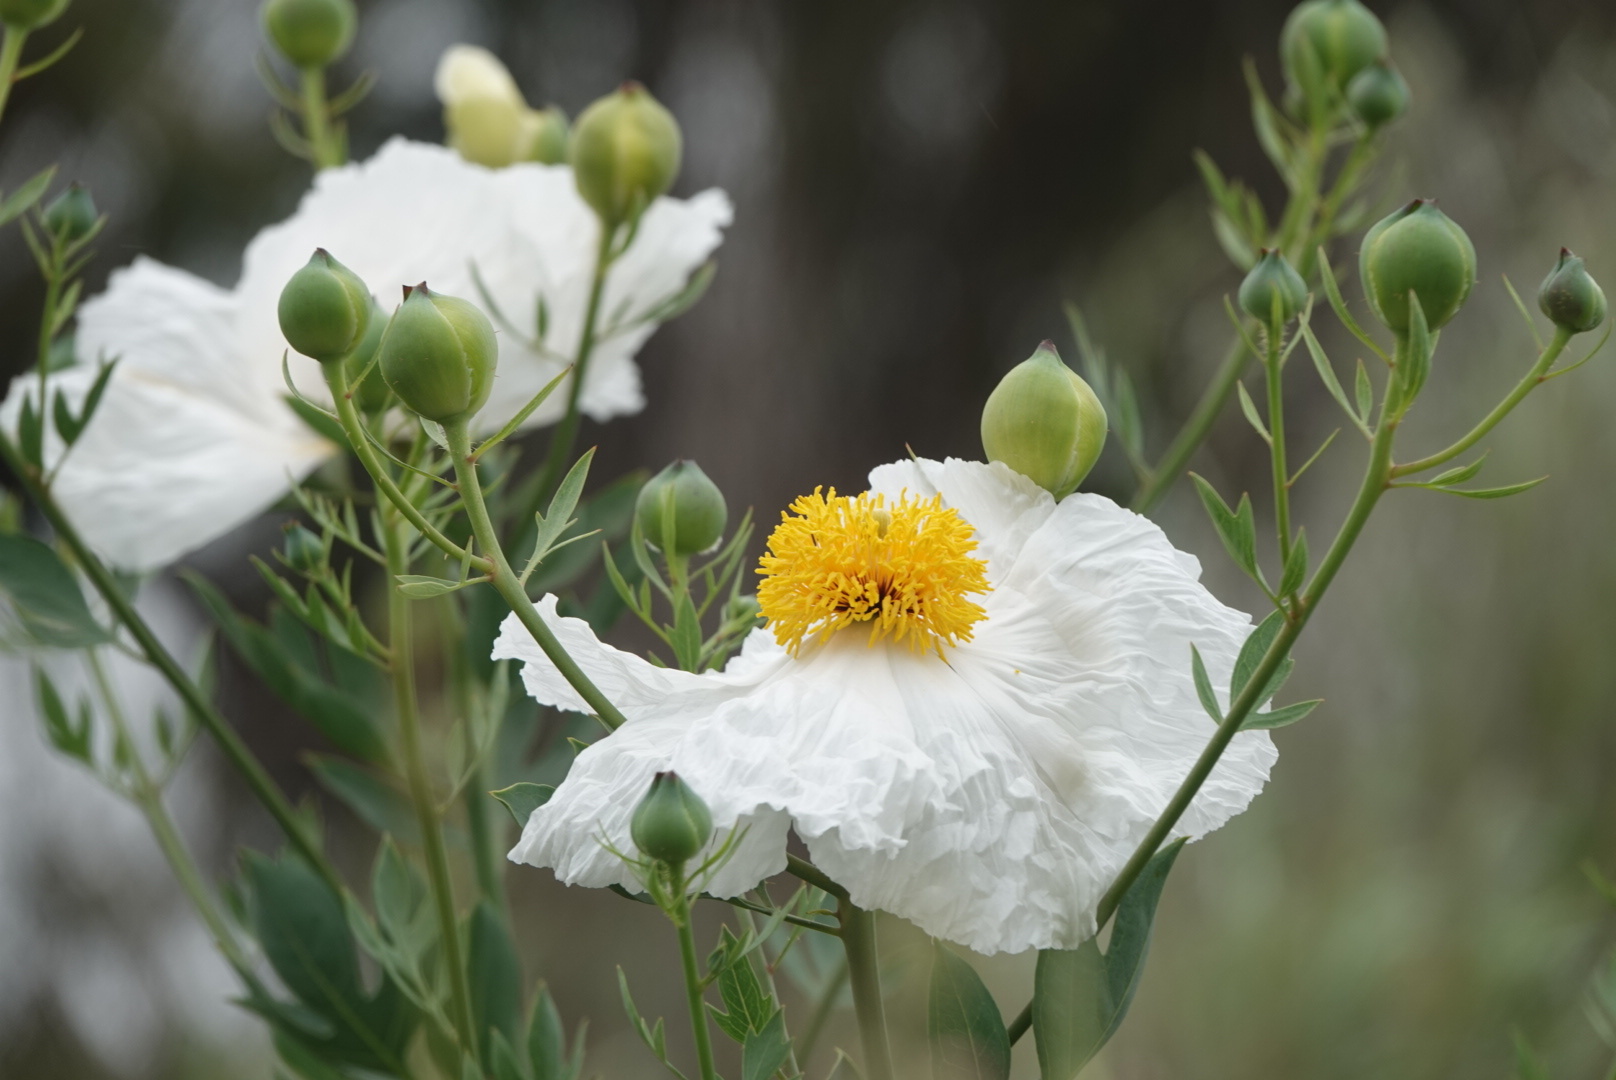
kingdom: Plantae
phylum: Tracheophyta
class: Magnoliopsida
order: Ranunculales
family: Papaveraceae
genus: Romneya
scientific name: Romneya coulteri
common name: California tree-poppy
